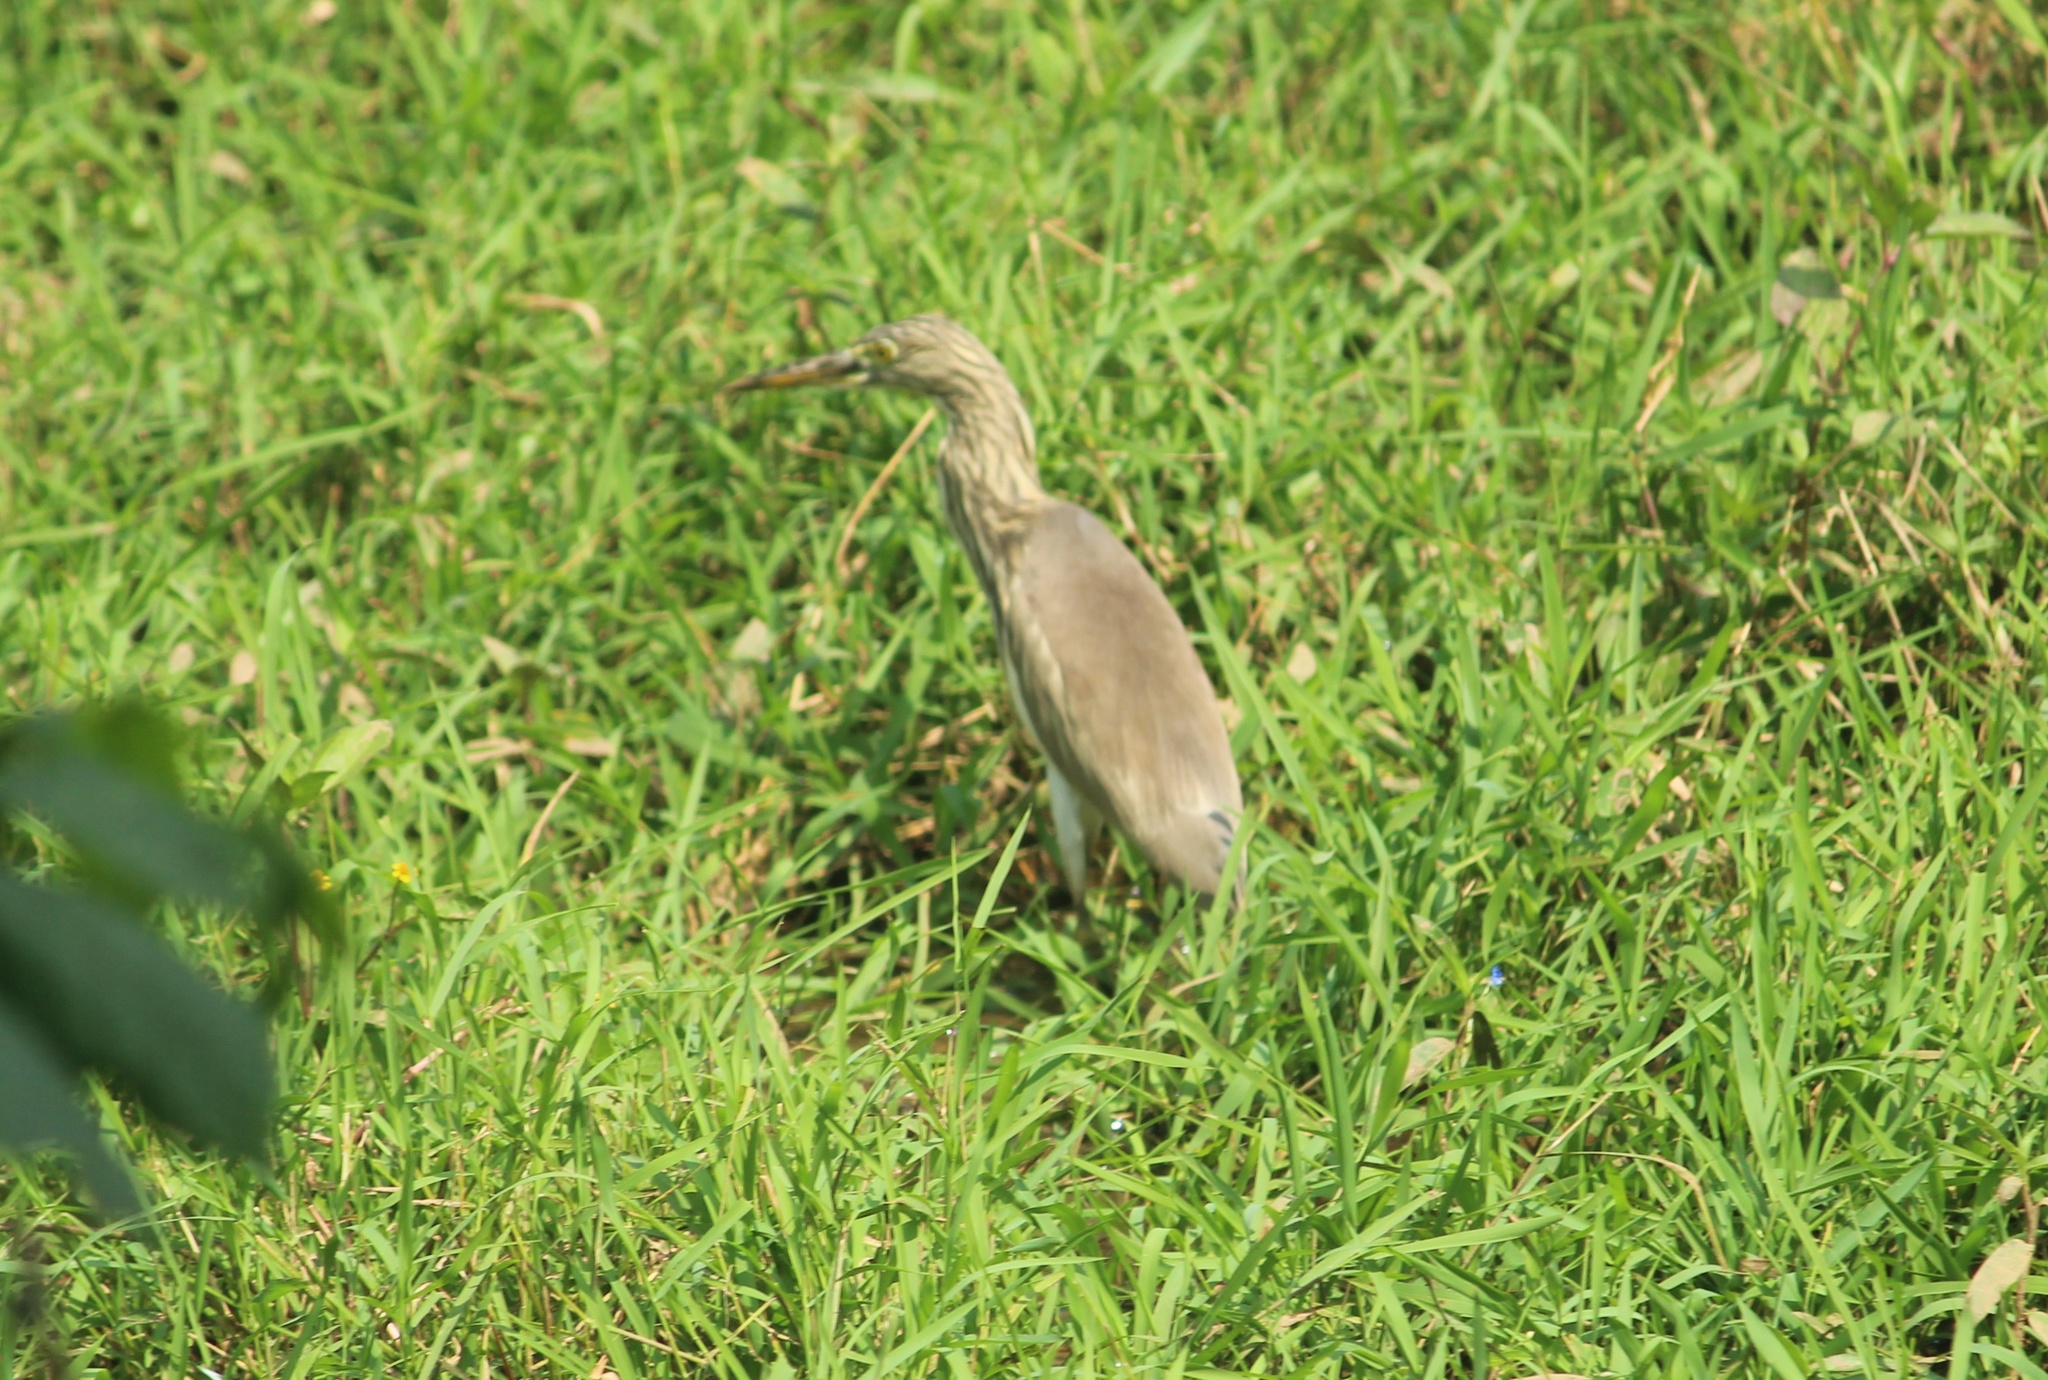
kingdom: Animalia
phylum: Chordata
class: Aves
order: Pelecaniformes
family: Ardeidae
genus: Ardeola
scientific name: Ardeola grayii
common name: Indian pond heron
